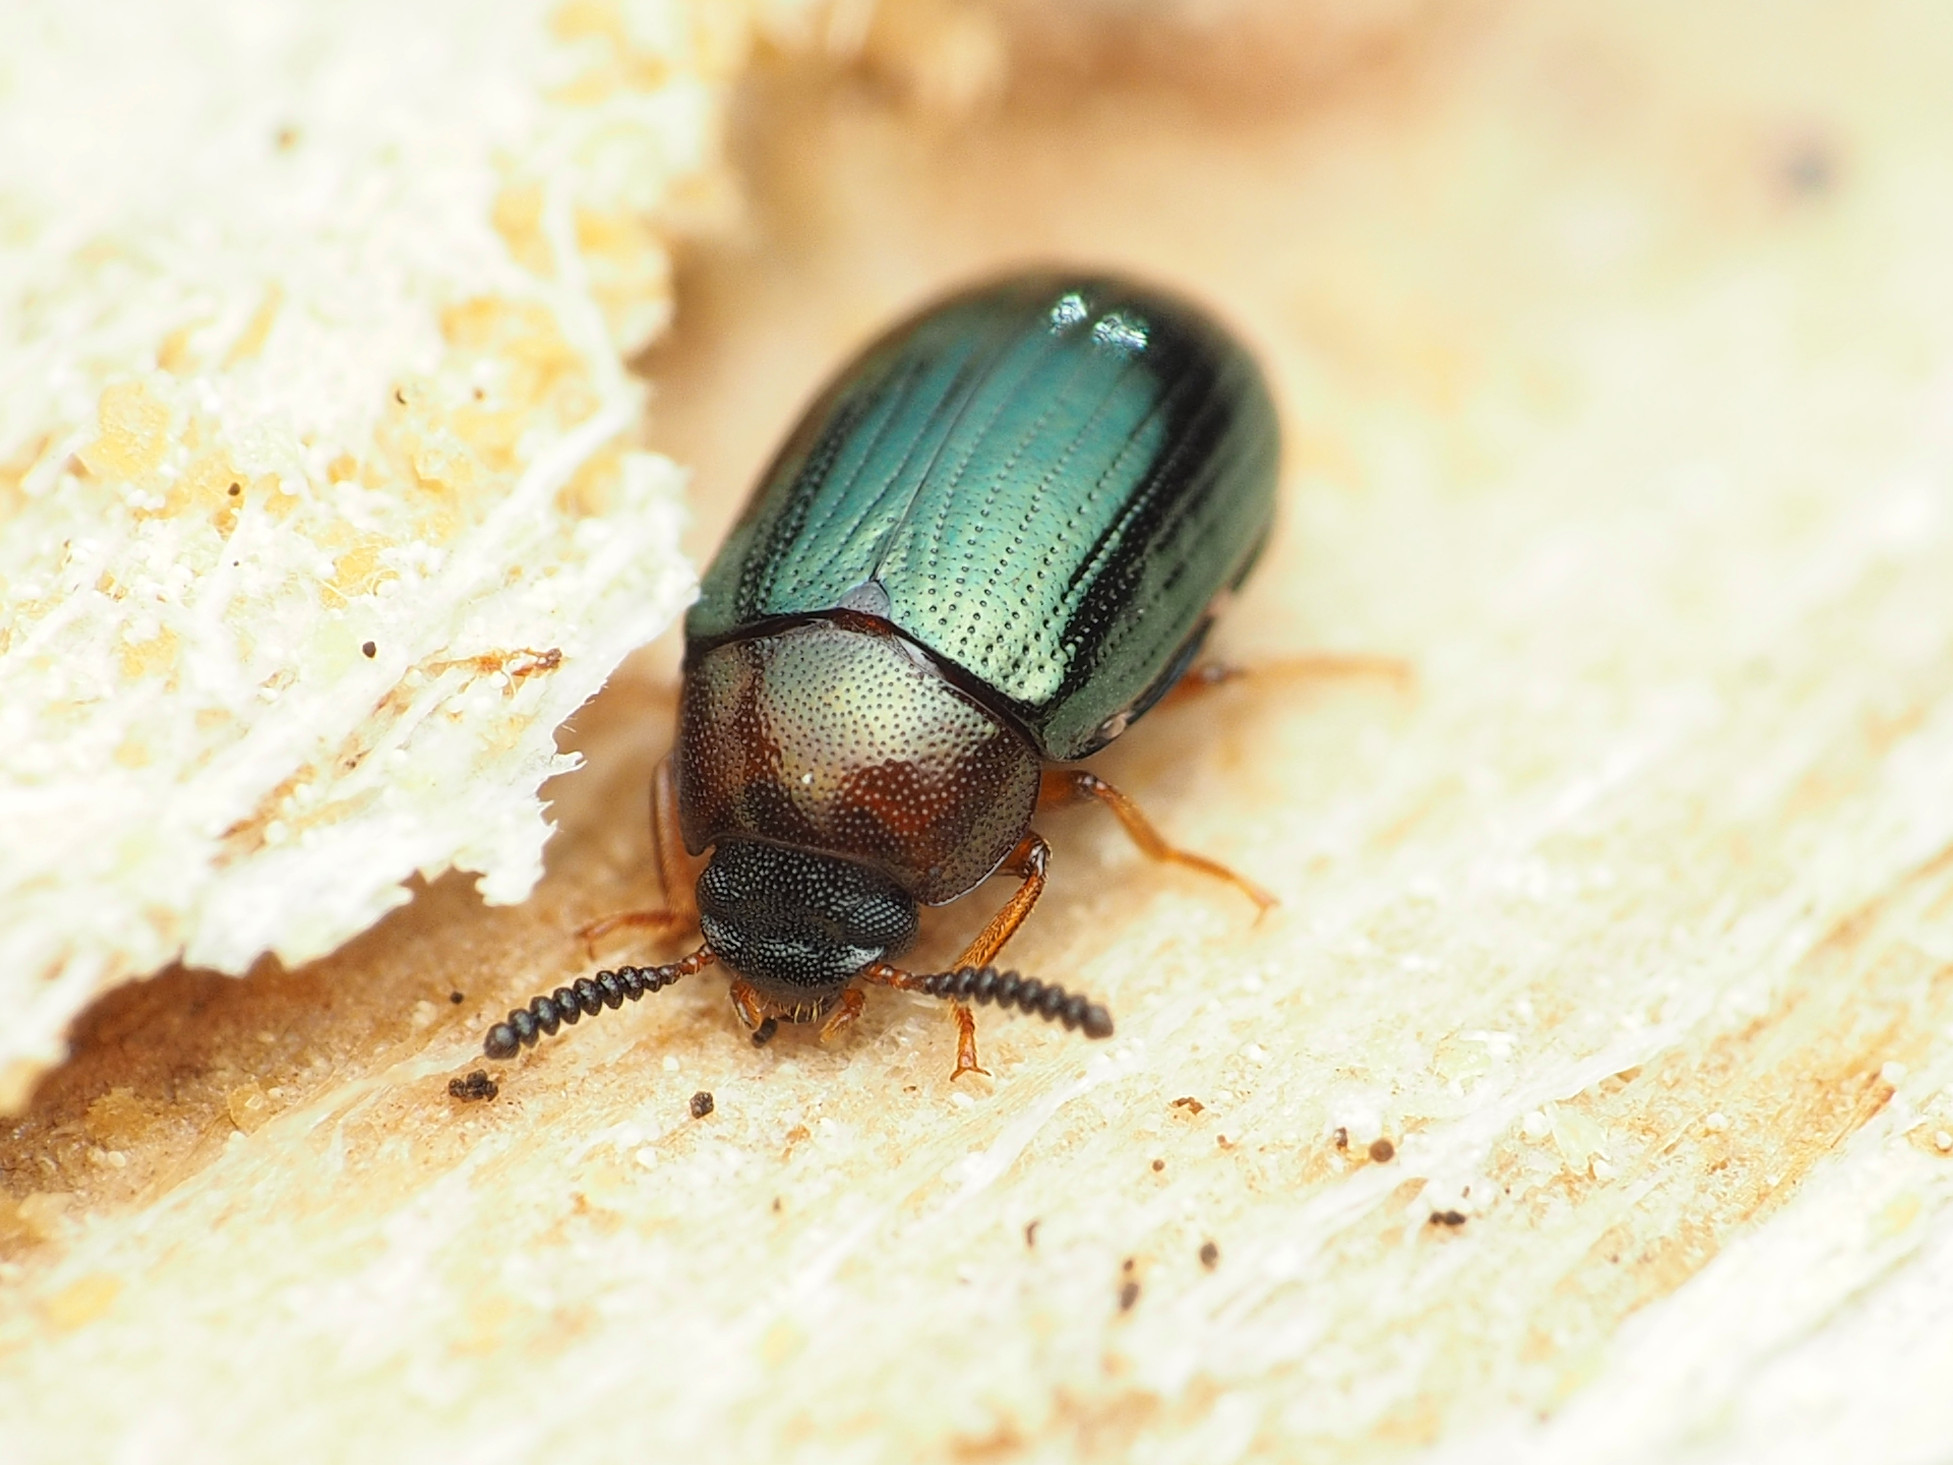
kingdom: Animalia
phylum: Arthropoda
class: Insecta
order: Coleoptera
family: Tenebrionidae
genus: Neomida
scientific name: Neomida bicornis
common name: Two-horned darkling beetle
